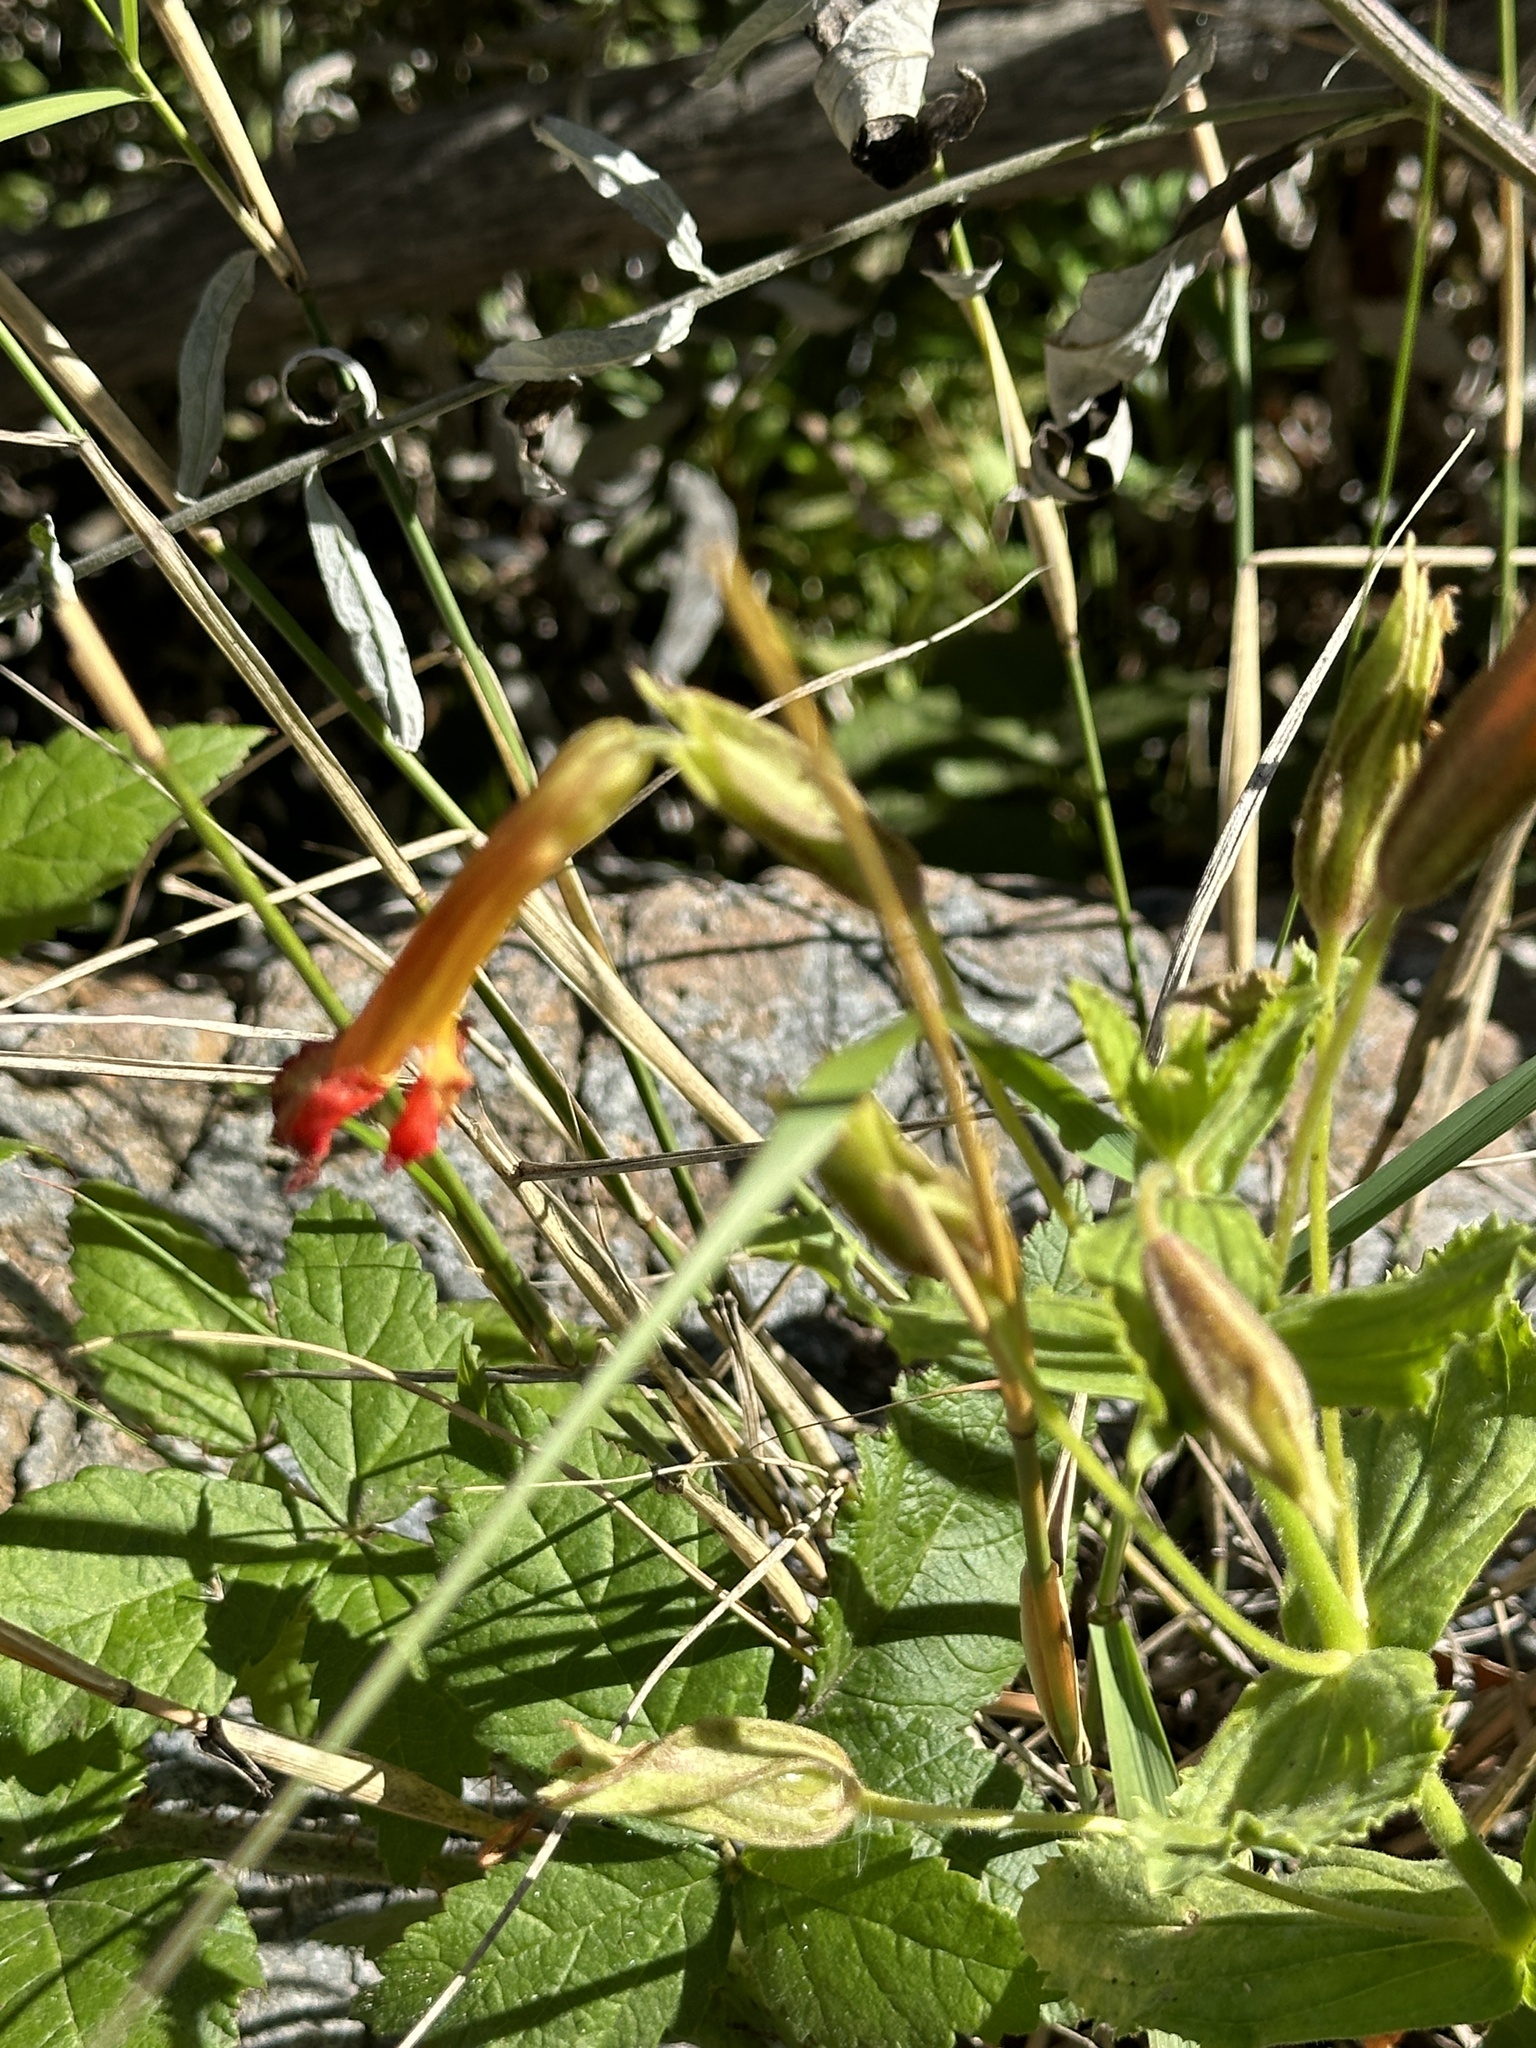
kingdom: Plantae
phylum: Tracheophyta
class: Magnoliopsida
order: Lamiales
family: Phrymaceae
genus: Erythranthe
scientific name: Erythranthe cardinalis
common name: Scarlet monkey-flower
